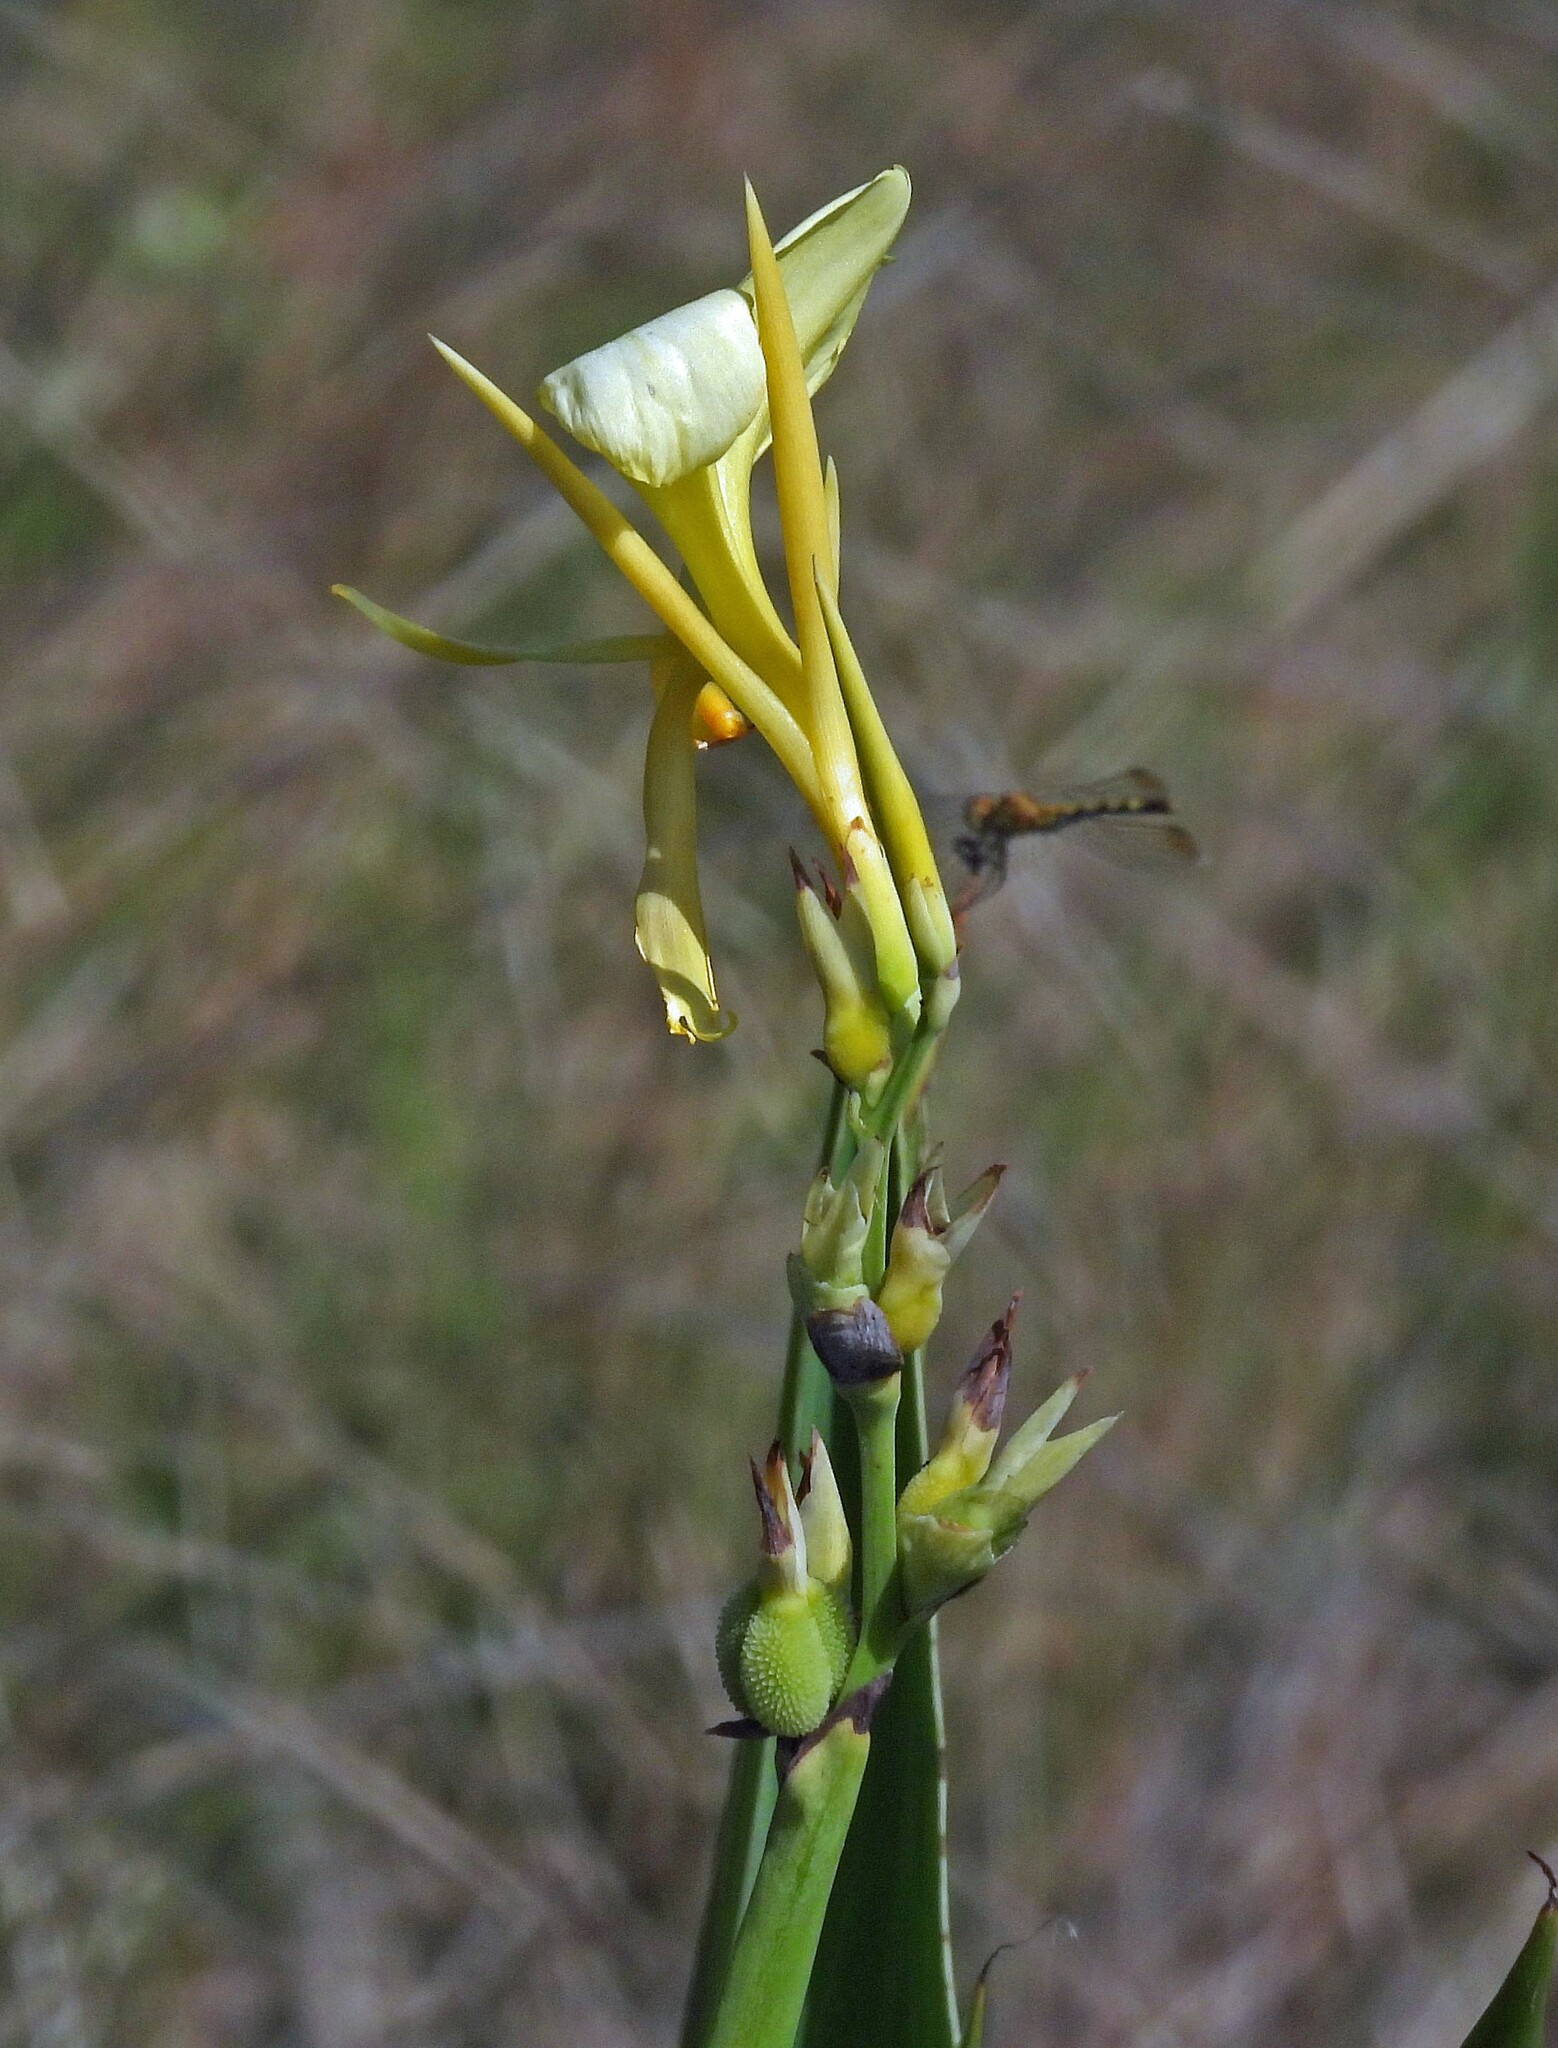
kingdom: Plantae
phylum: Tracheophyta
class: Liliopsida
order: Zingiberales
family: Cannaceae
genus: Canna
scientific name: Canna glauca
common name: Louisiana canna
